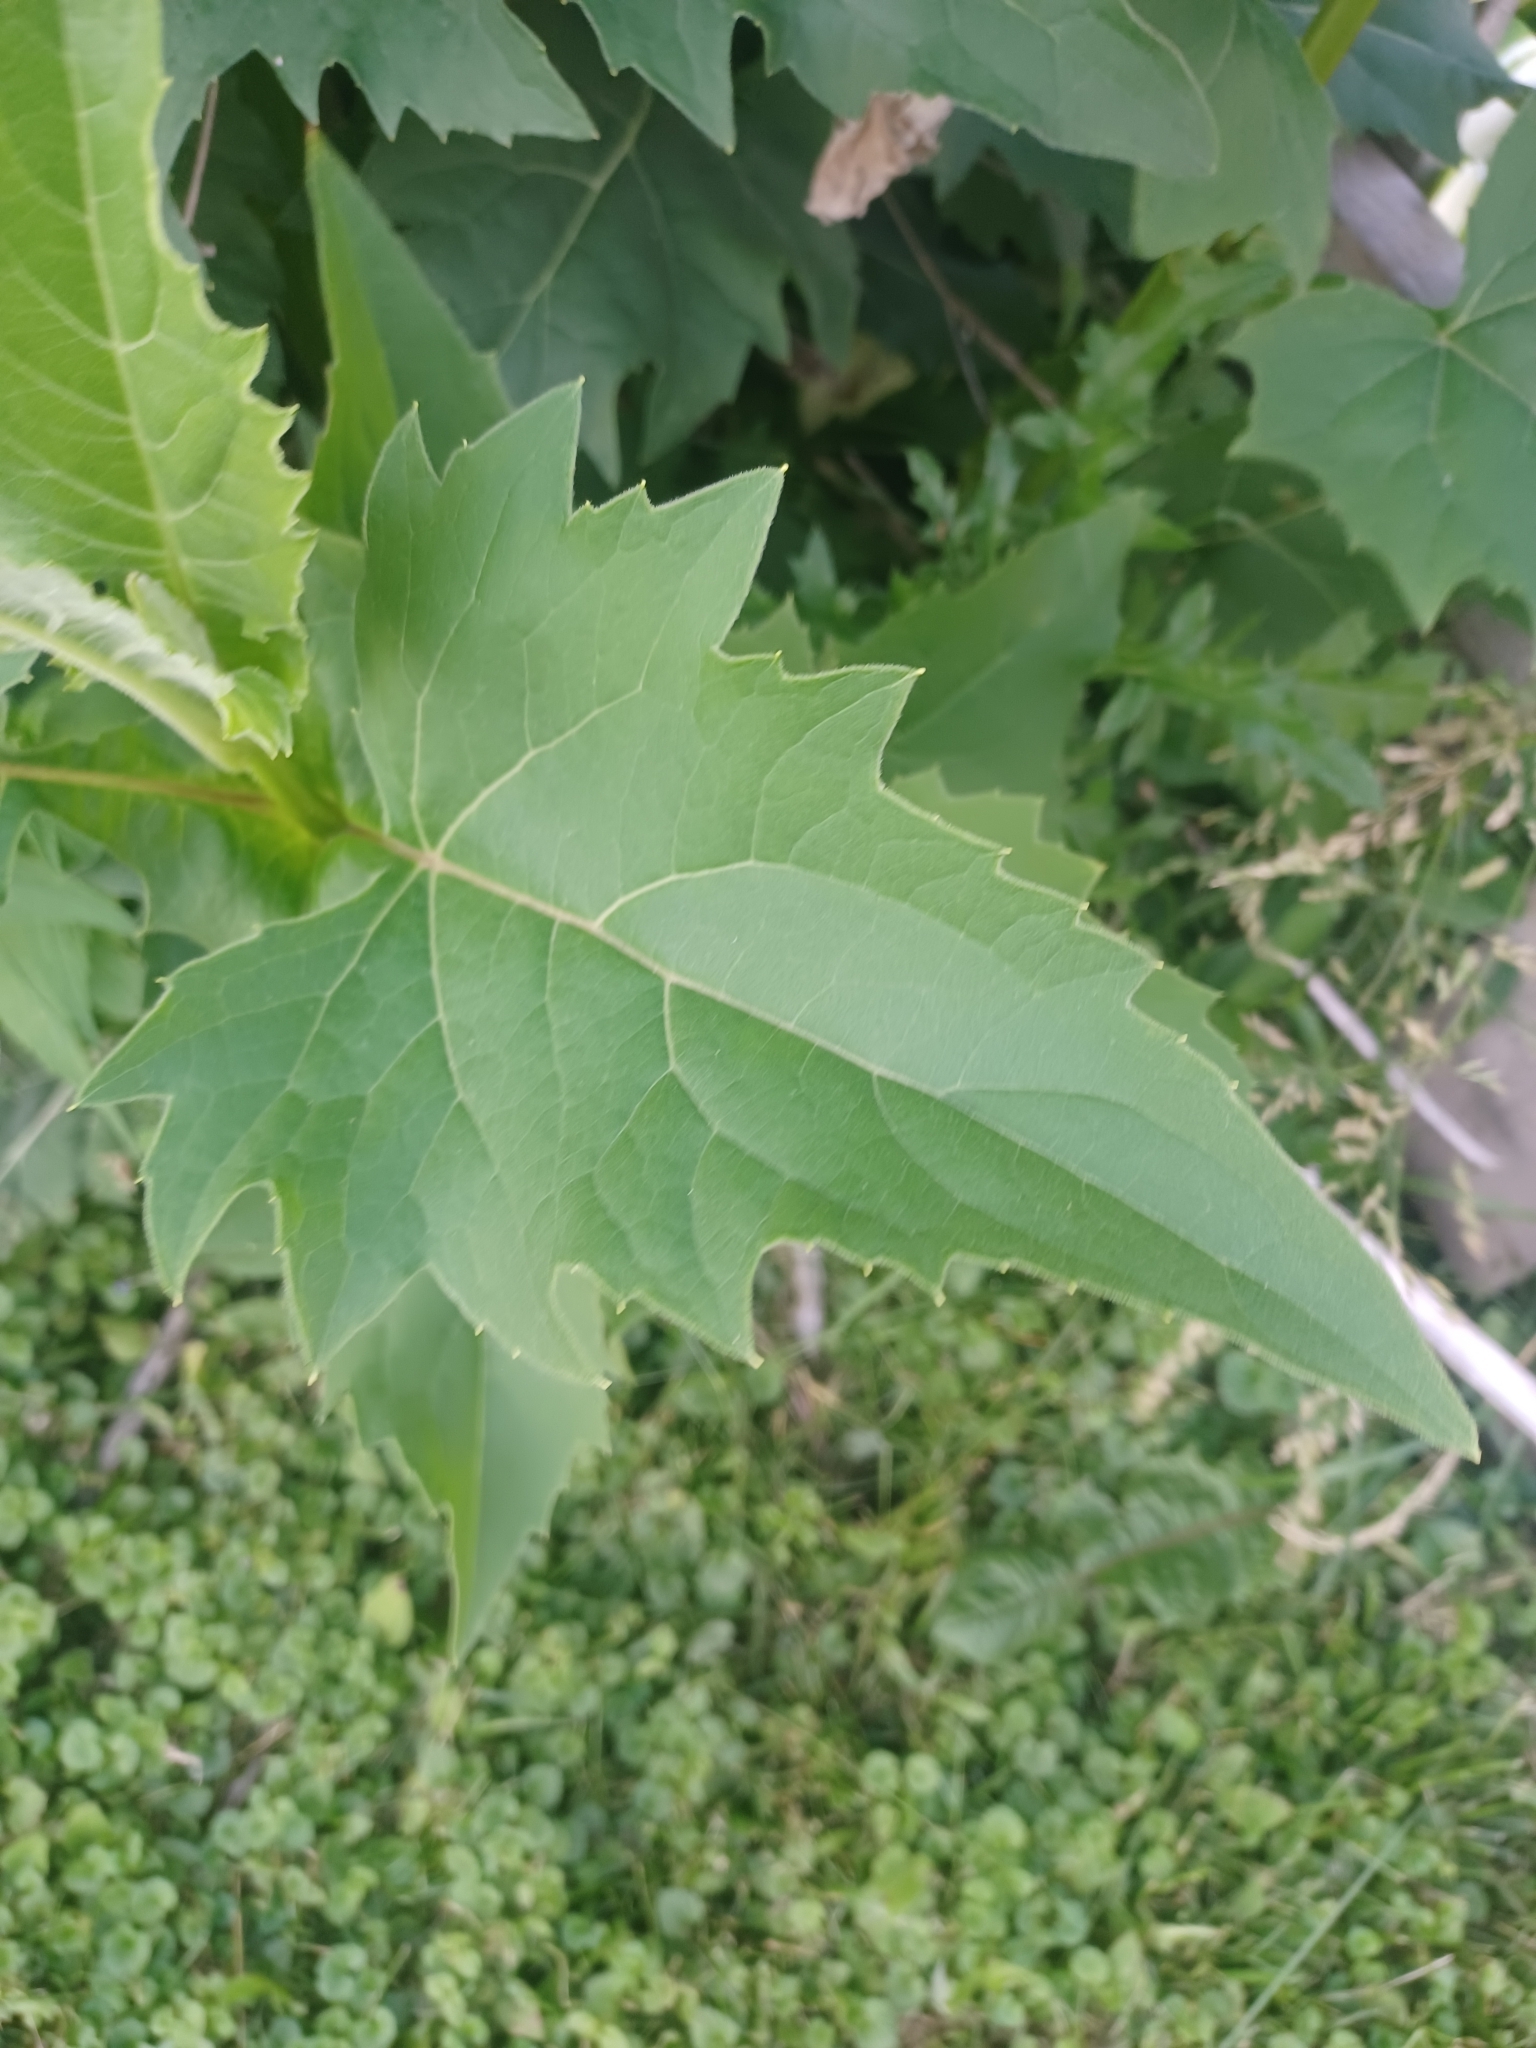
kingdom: Plantae
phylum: Tracheophyta
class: Magnoliopsida
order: Asterales
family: Asteraceae
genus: Silphium
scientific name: Silphium perfoliatum
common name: Cup-plant
